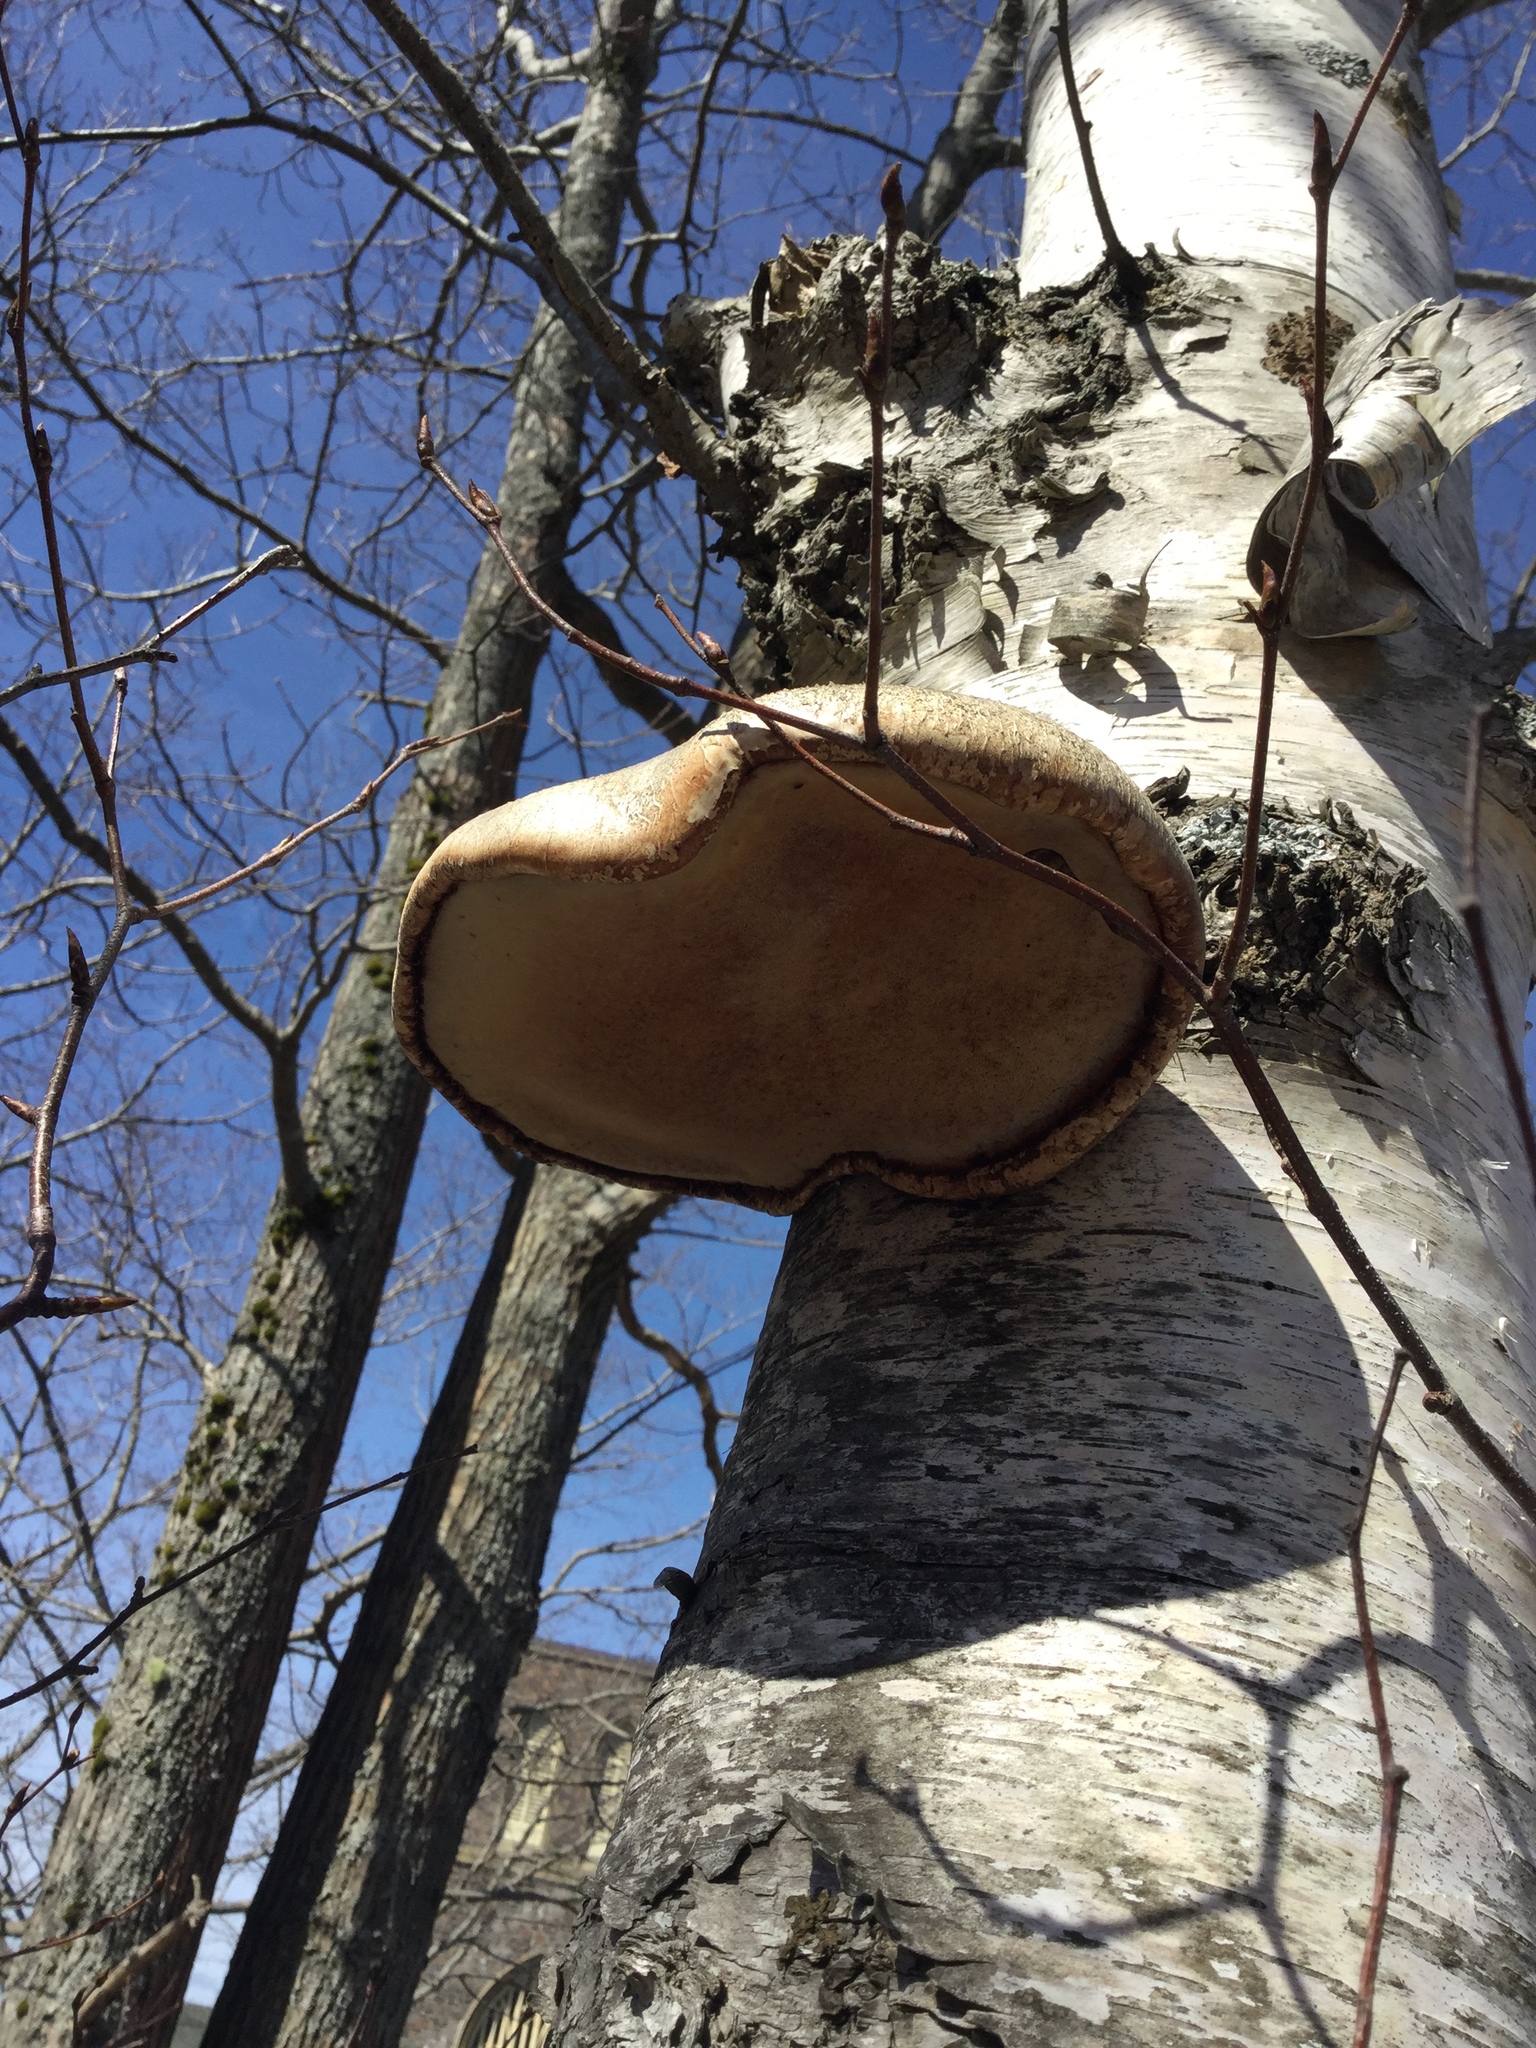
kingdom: Fungi
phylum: Basidiomycota
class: Agaricomycetes
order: Polyporales
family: Fomitopsidaceae
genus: Fomitopsis
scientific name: Fomitopsis betulina
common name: Birch polypore
